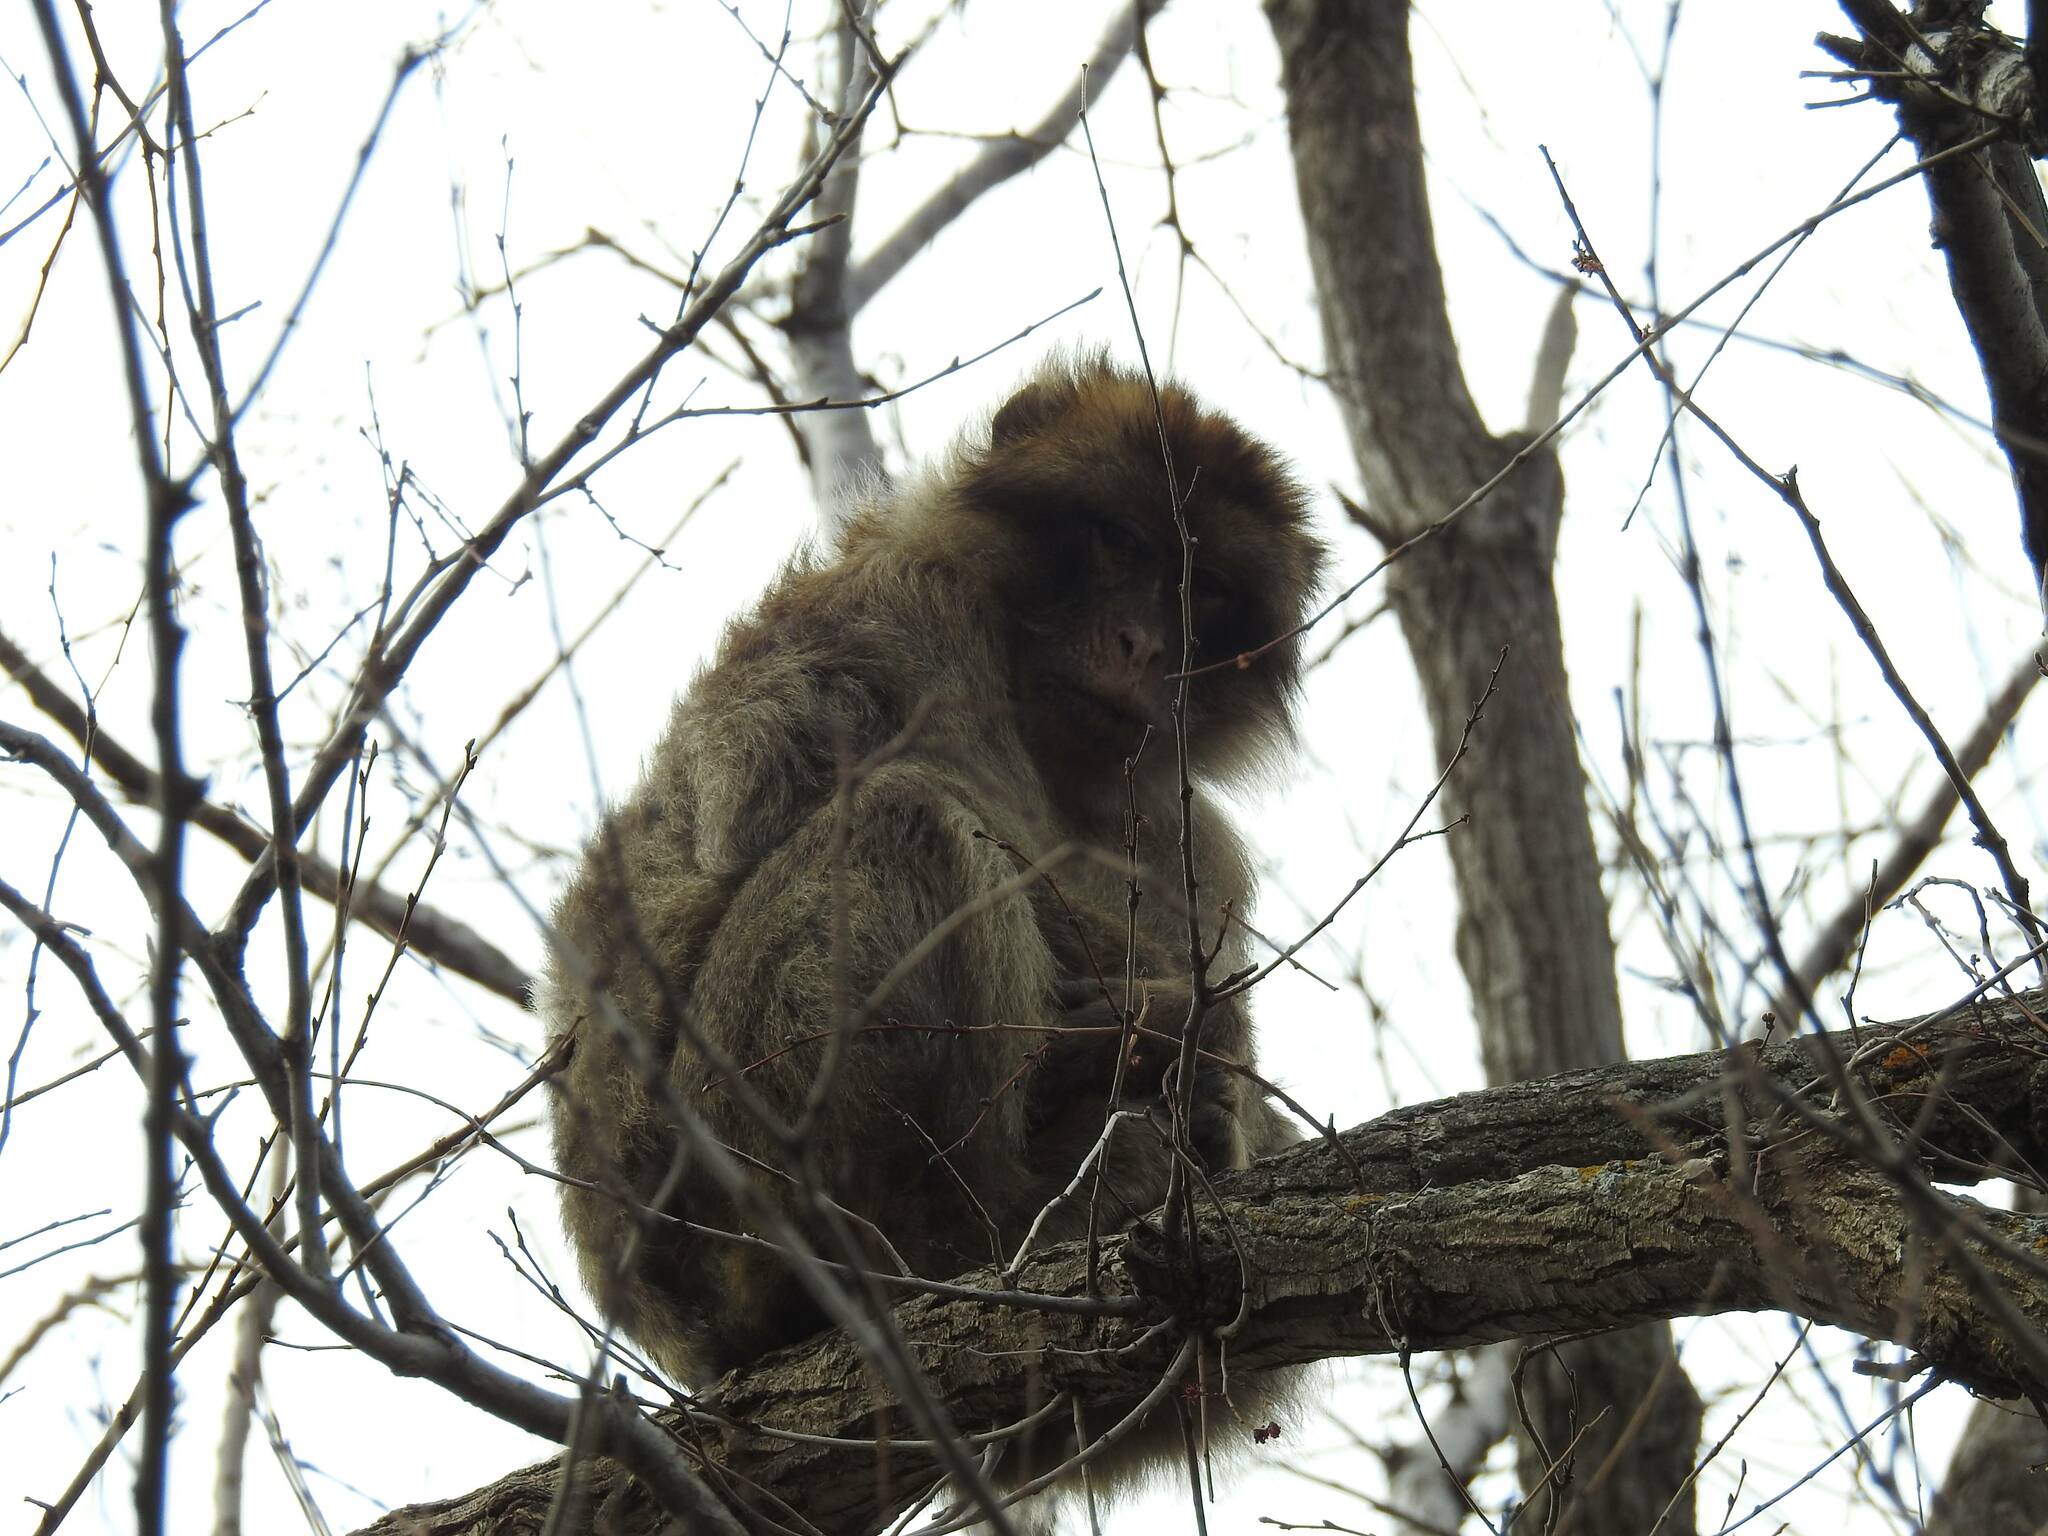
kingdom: Animalia
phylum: Chordata
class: Mammalia
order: Primates
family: Cercopithecidae
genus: Macaca
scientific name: Macaca sylvanus
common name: Barbary macaque
